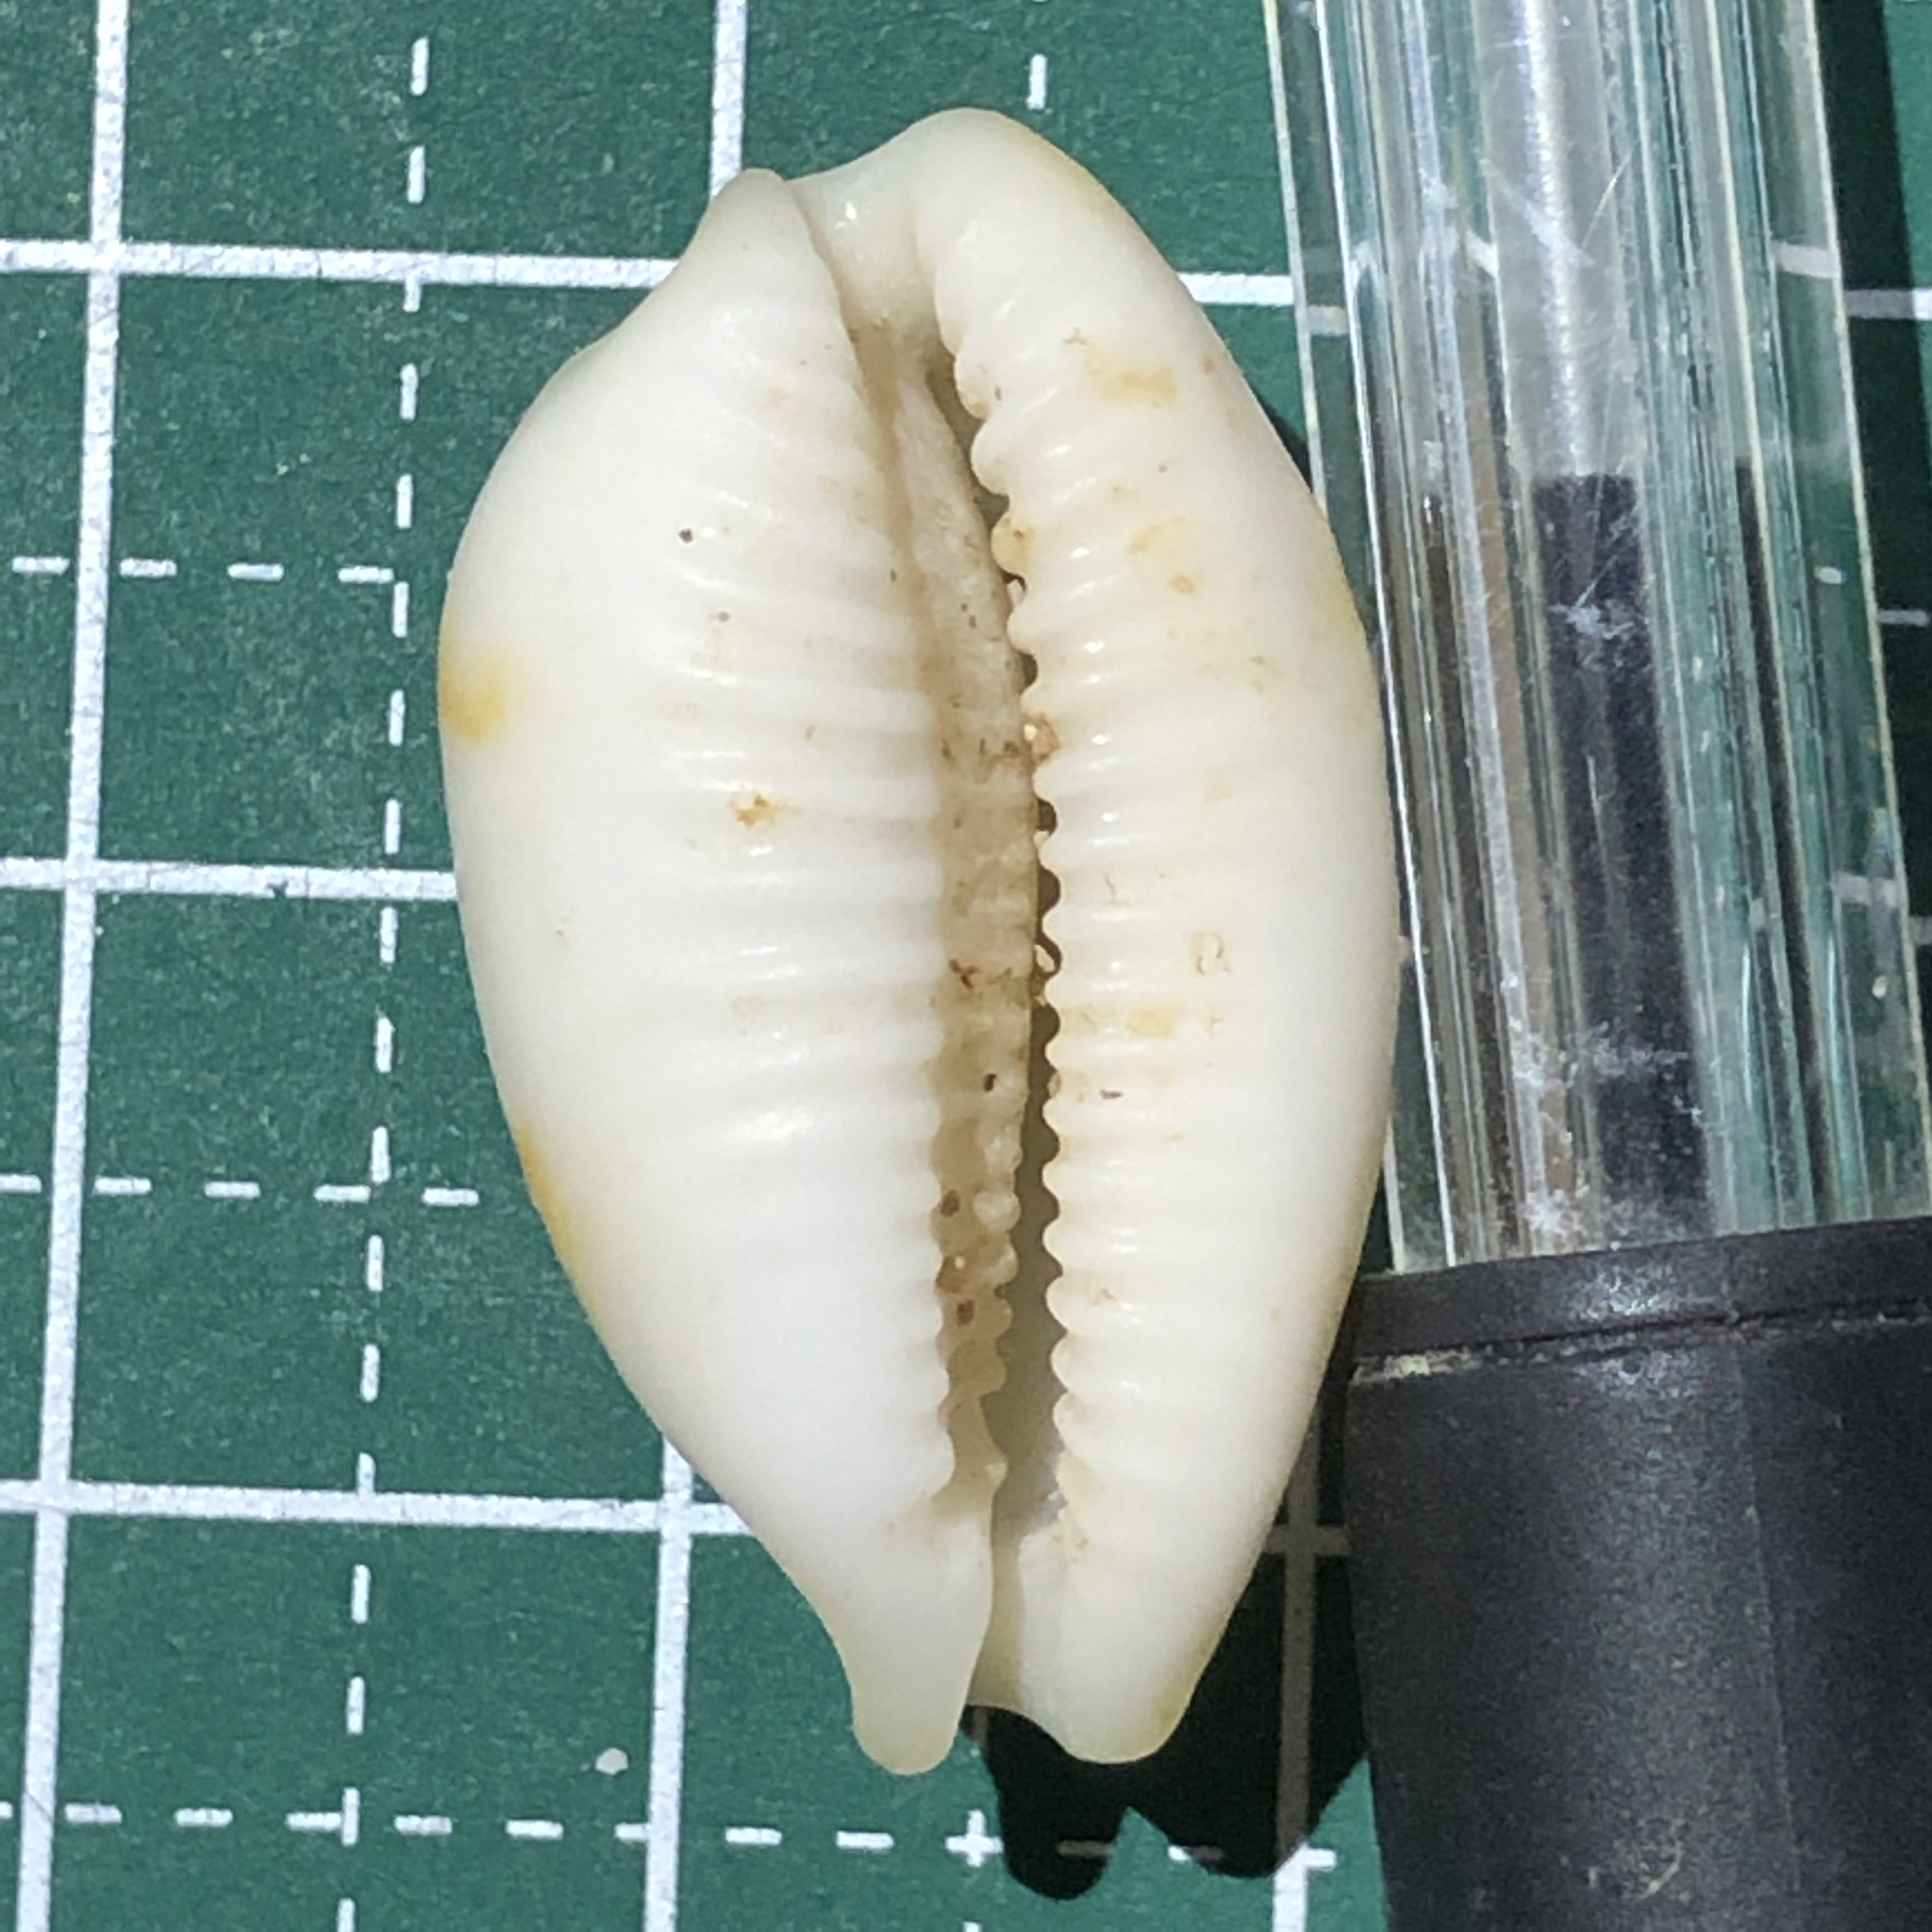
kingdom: Animalia
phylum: Mollusca
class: Gastropoda
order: Littorinimorpha
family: Cypraeidae
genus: Bistolida
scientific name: Bistolida stolida
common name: Stolid cowrie
